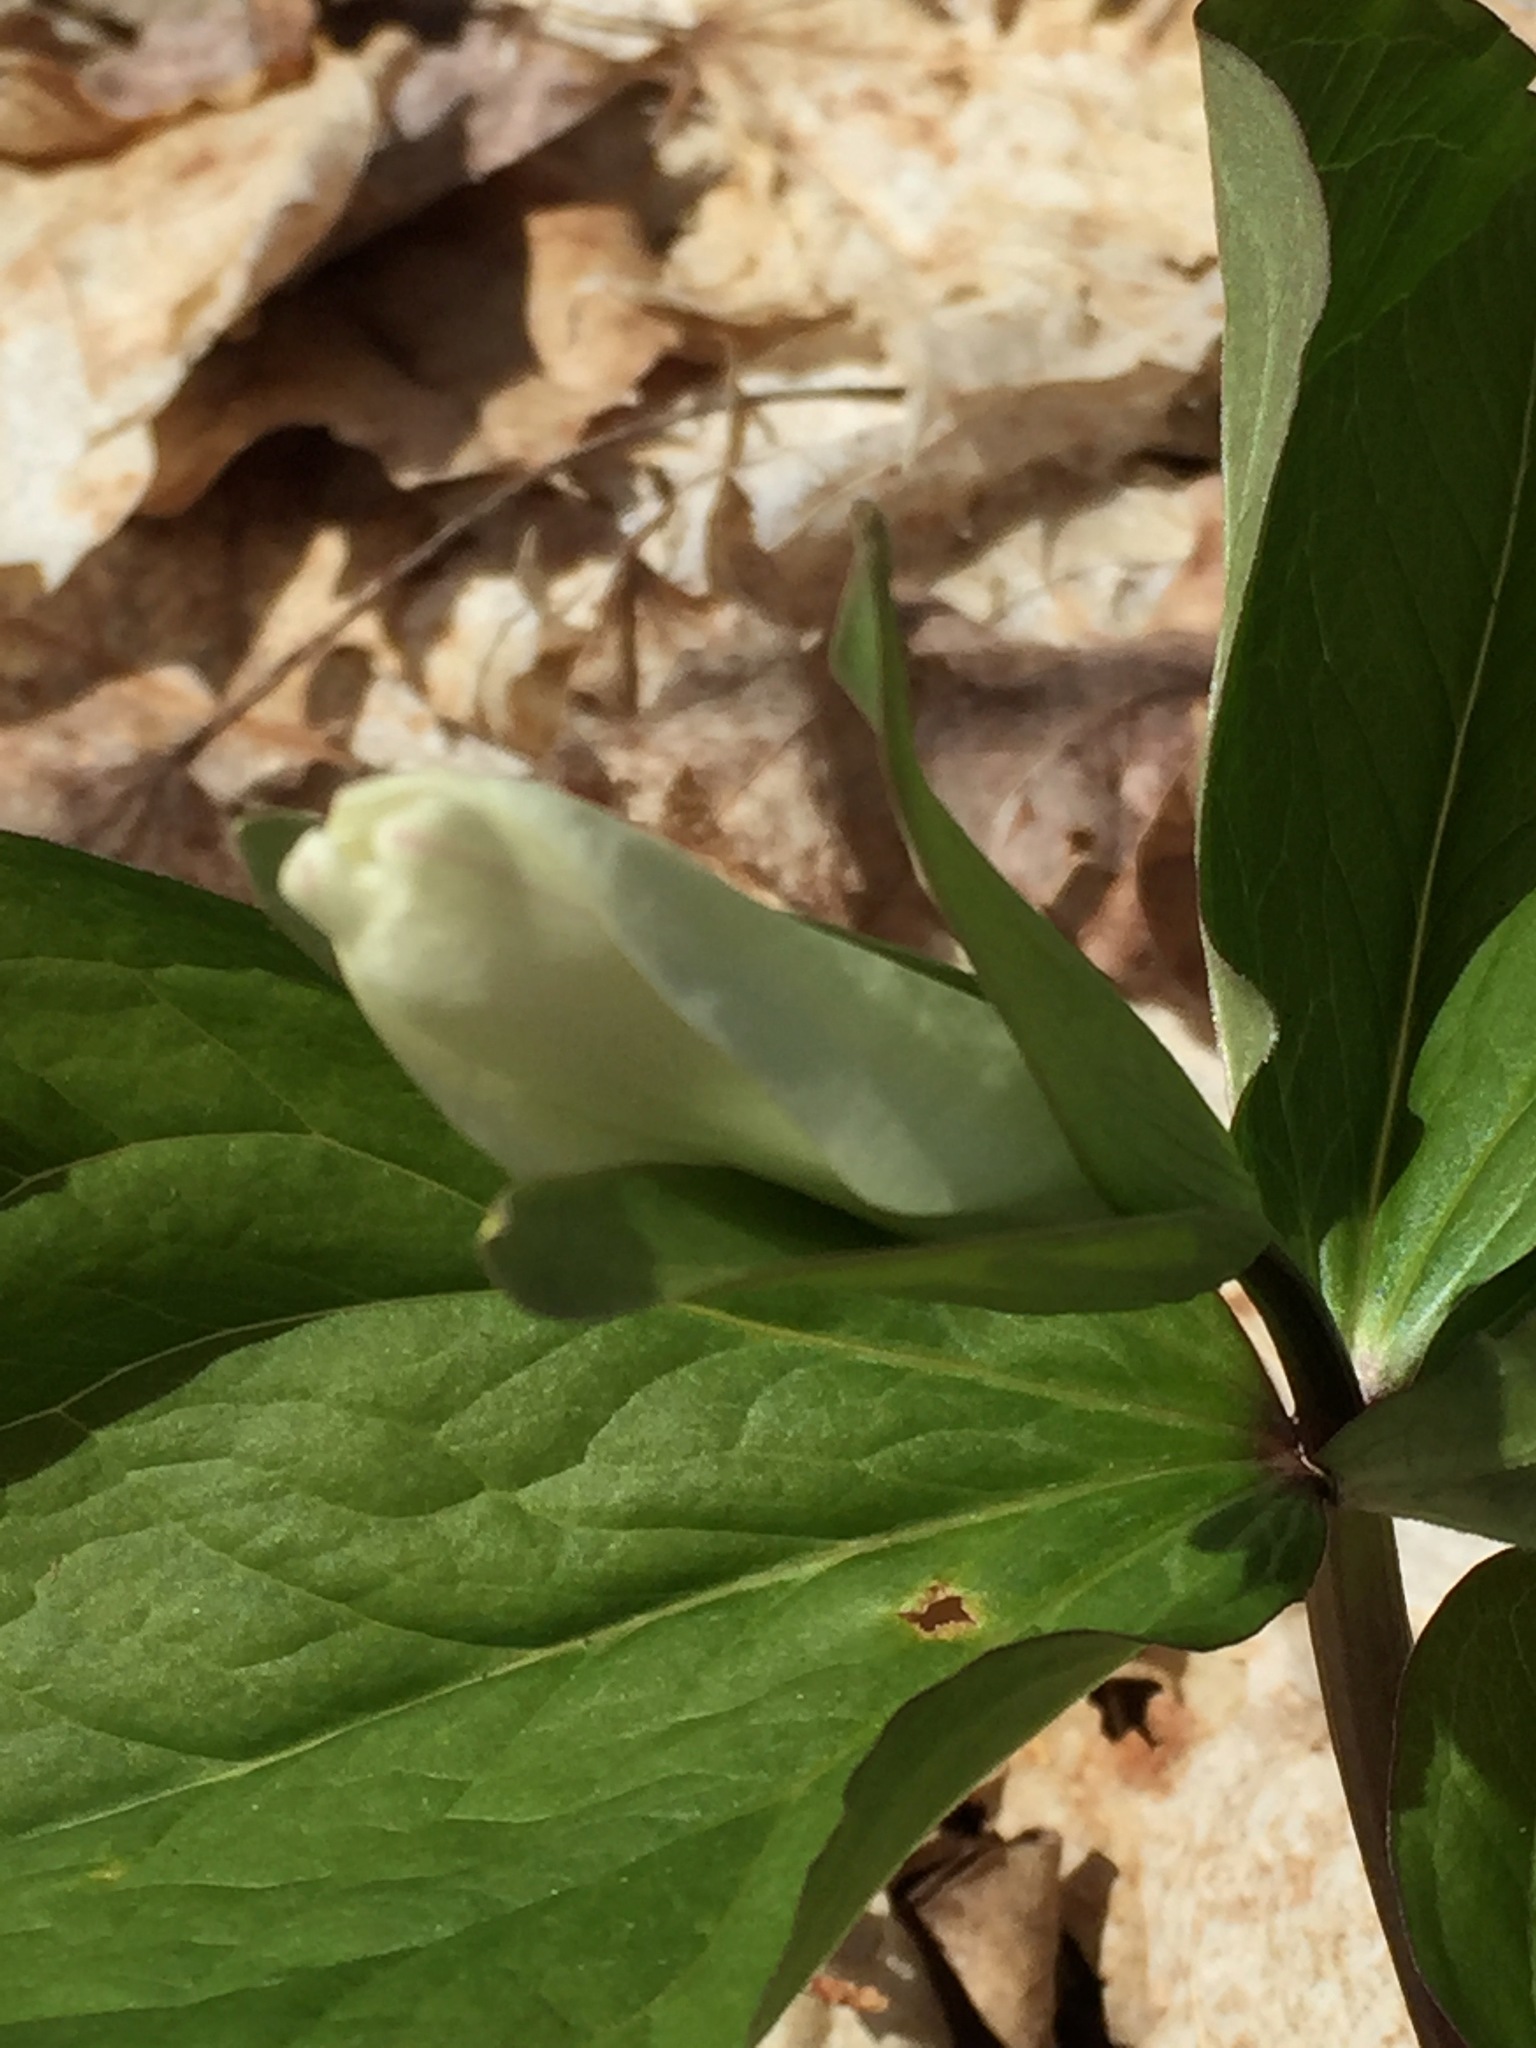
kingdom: Plantae
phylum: Tracheophyta
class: Liliopsida
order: Liliales
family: Melanthiaceae
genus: Trillium
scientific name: Trillium grandiflorum
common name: Great white trillium
